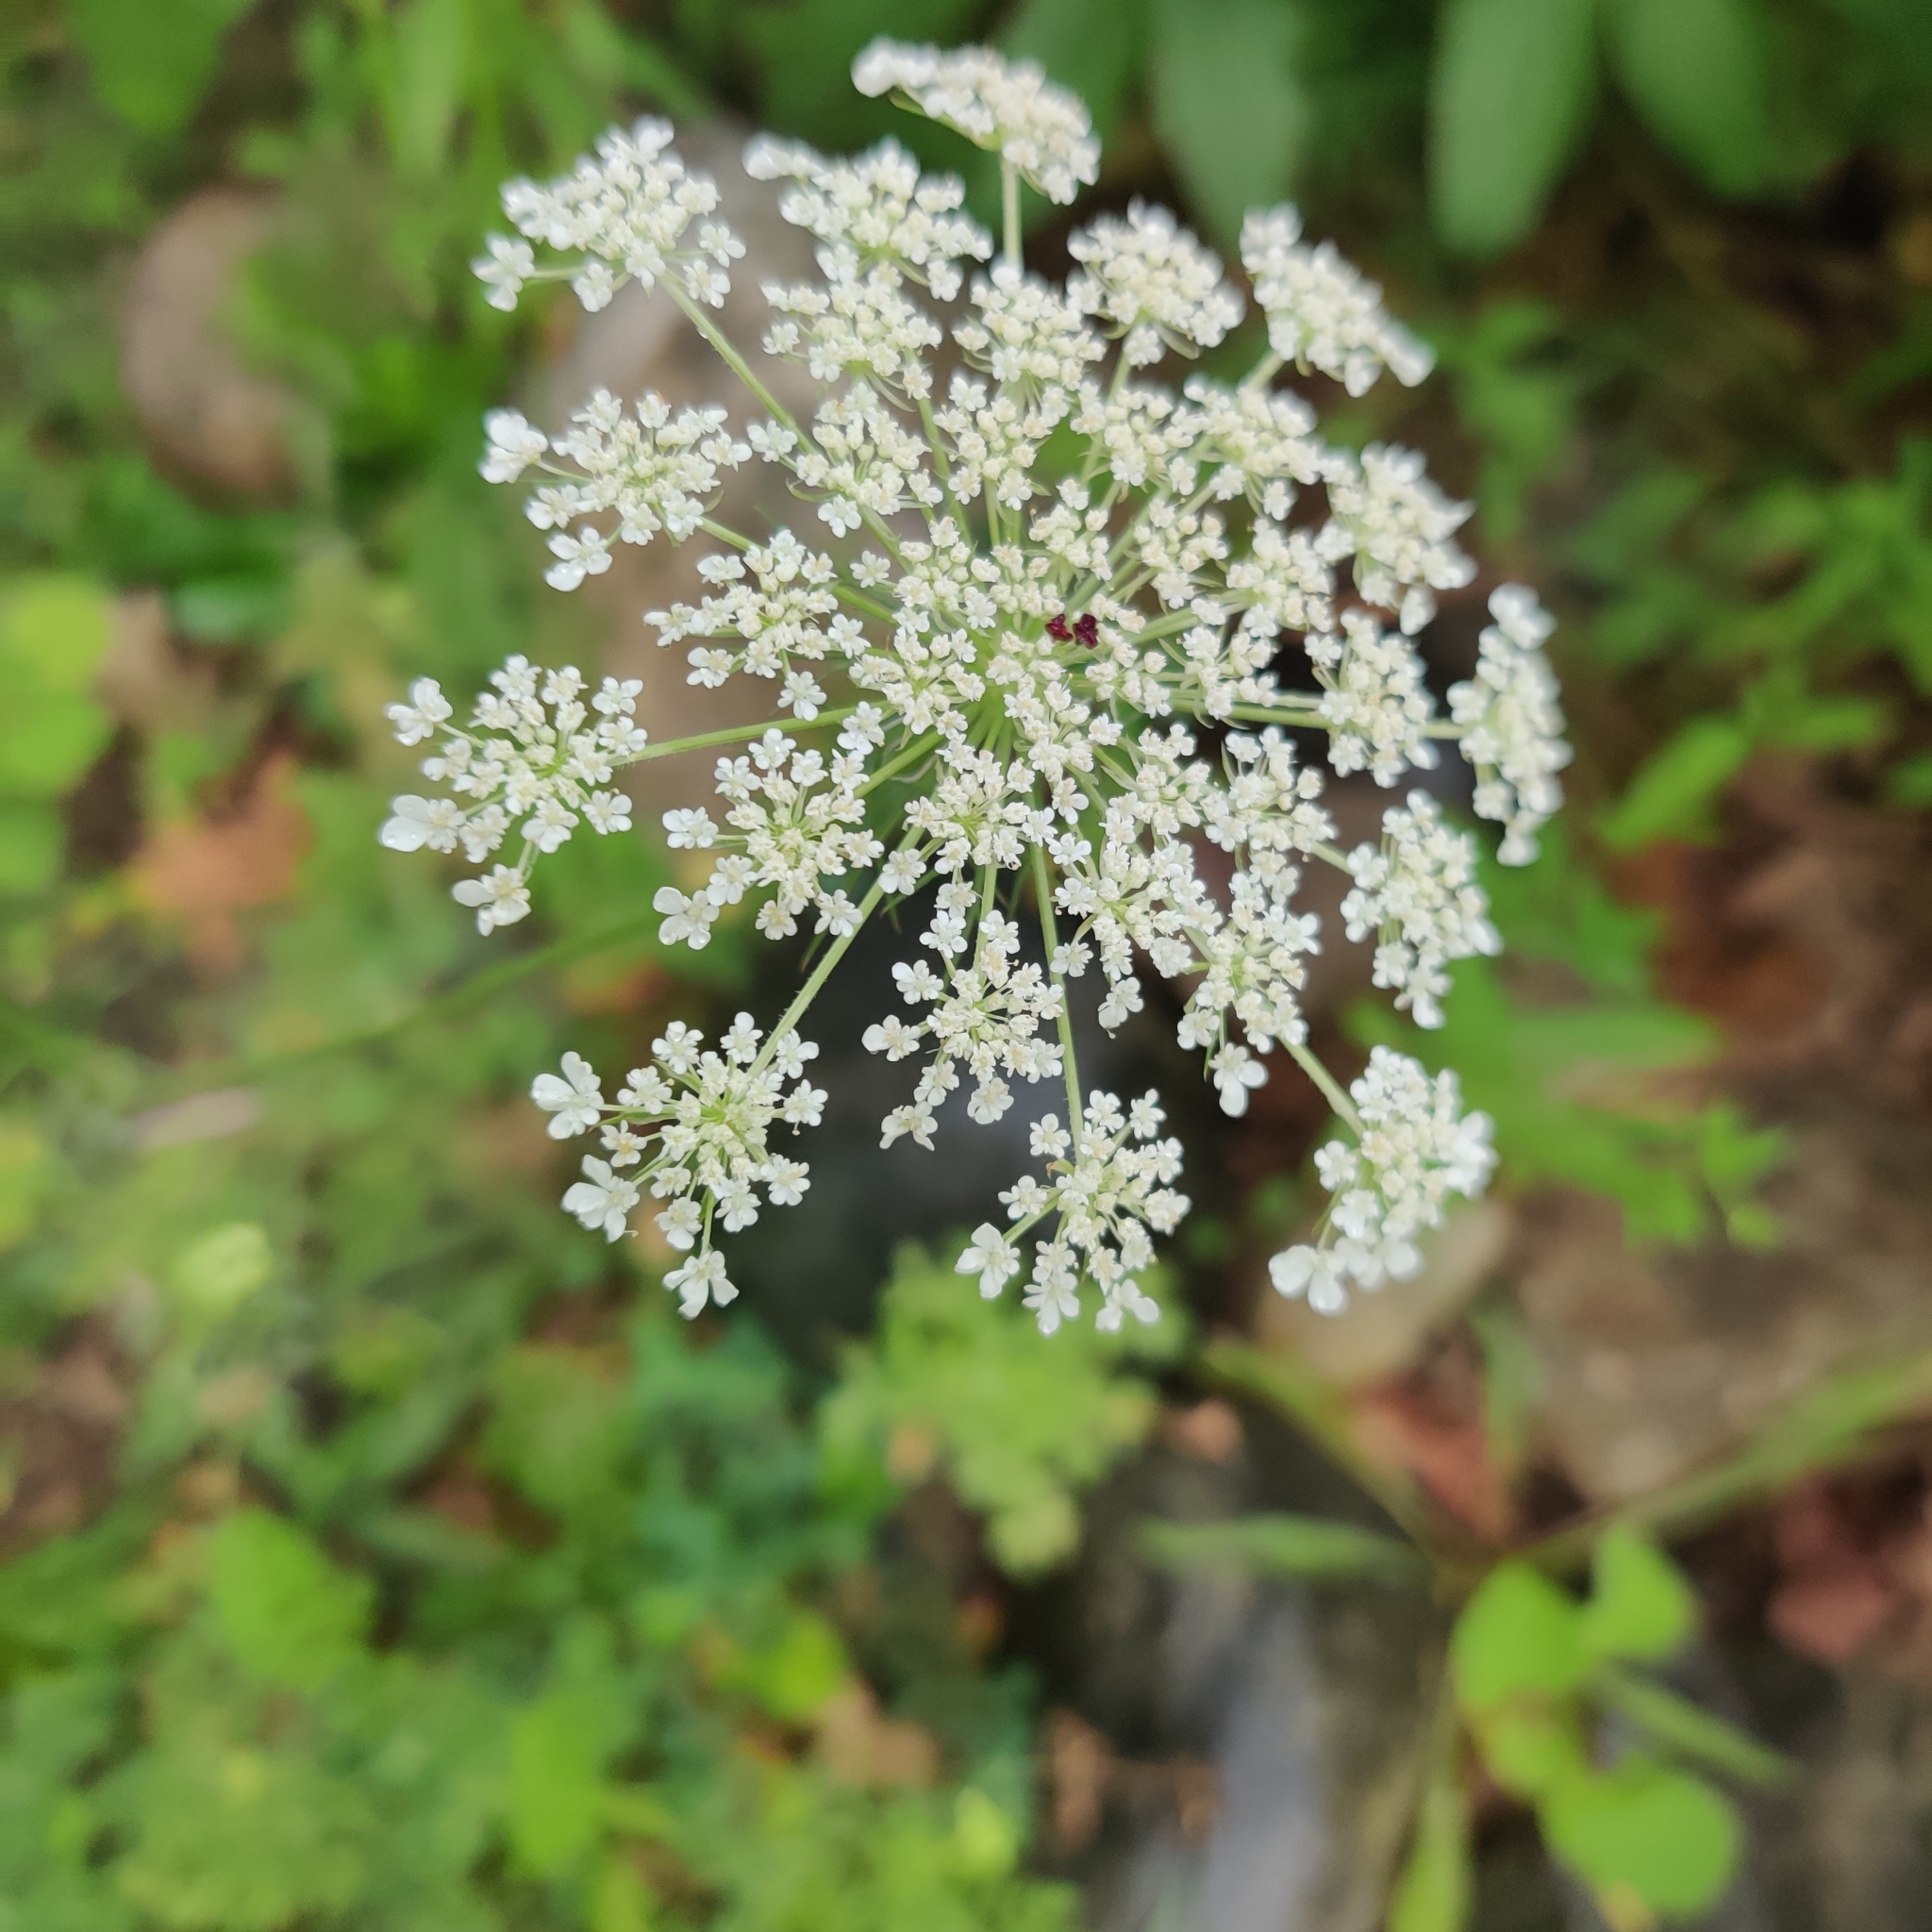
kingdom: Plantae
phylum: Tracheophyta
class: Magnoliopsida
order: Apiales
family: Apiaceae
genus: Daucus
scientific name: Daucus carota
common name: Wild carrot
